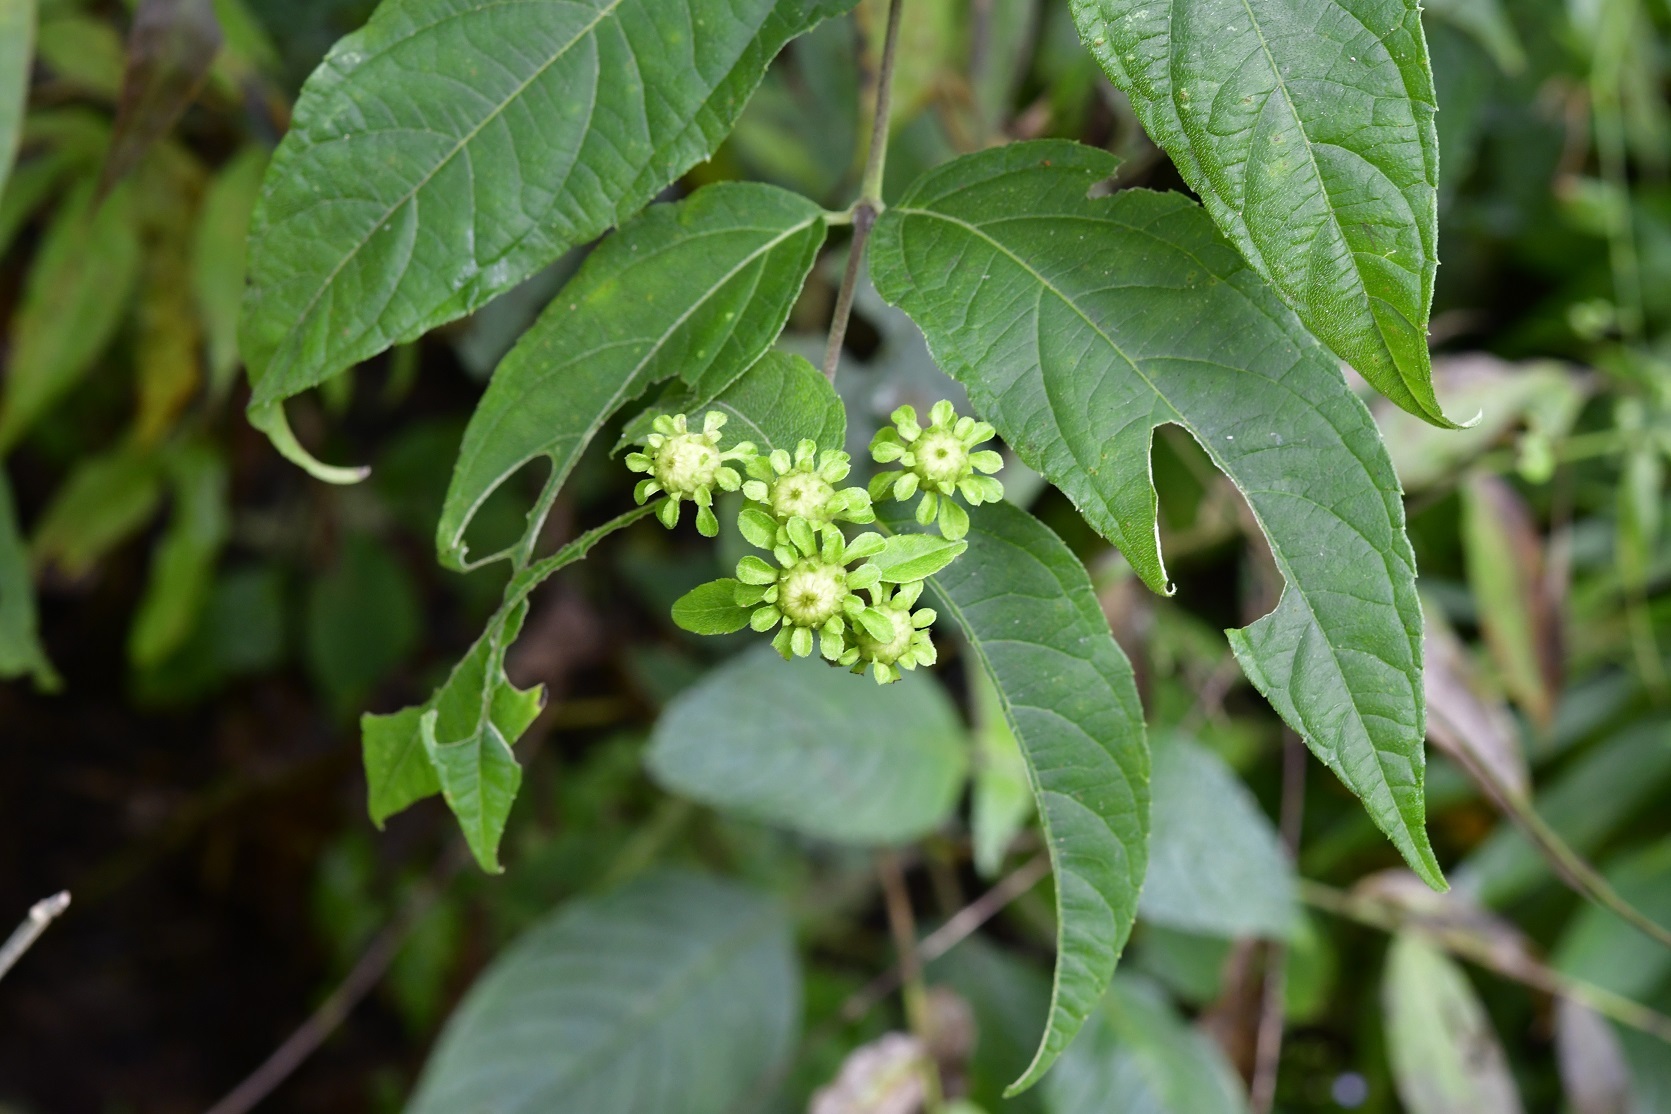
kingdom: Plantae
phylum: Tracheophyta
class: Magnoliopsida
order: Asterales
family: Asteraceae
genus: Otopappus
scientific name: Otopappus brevipes
